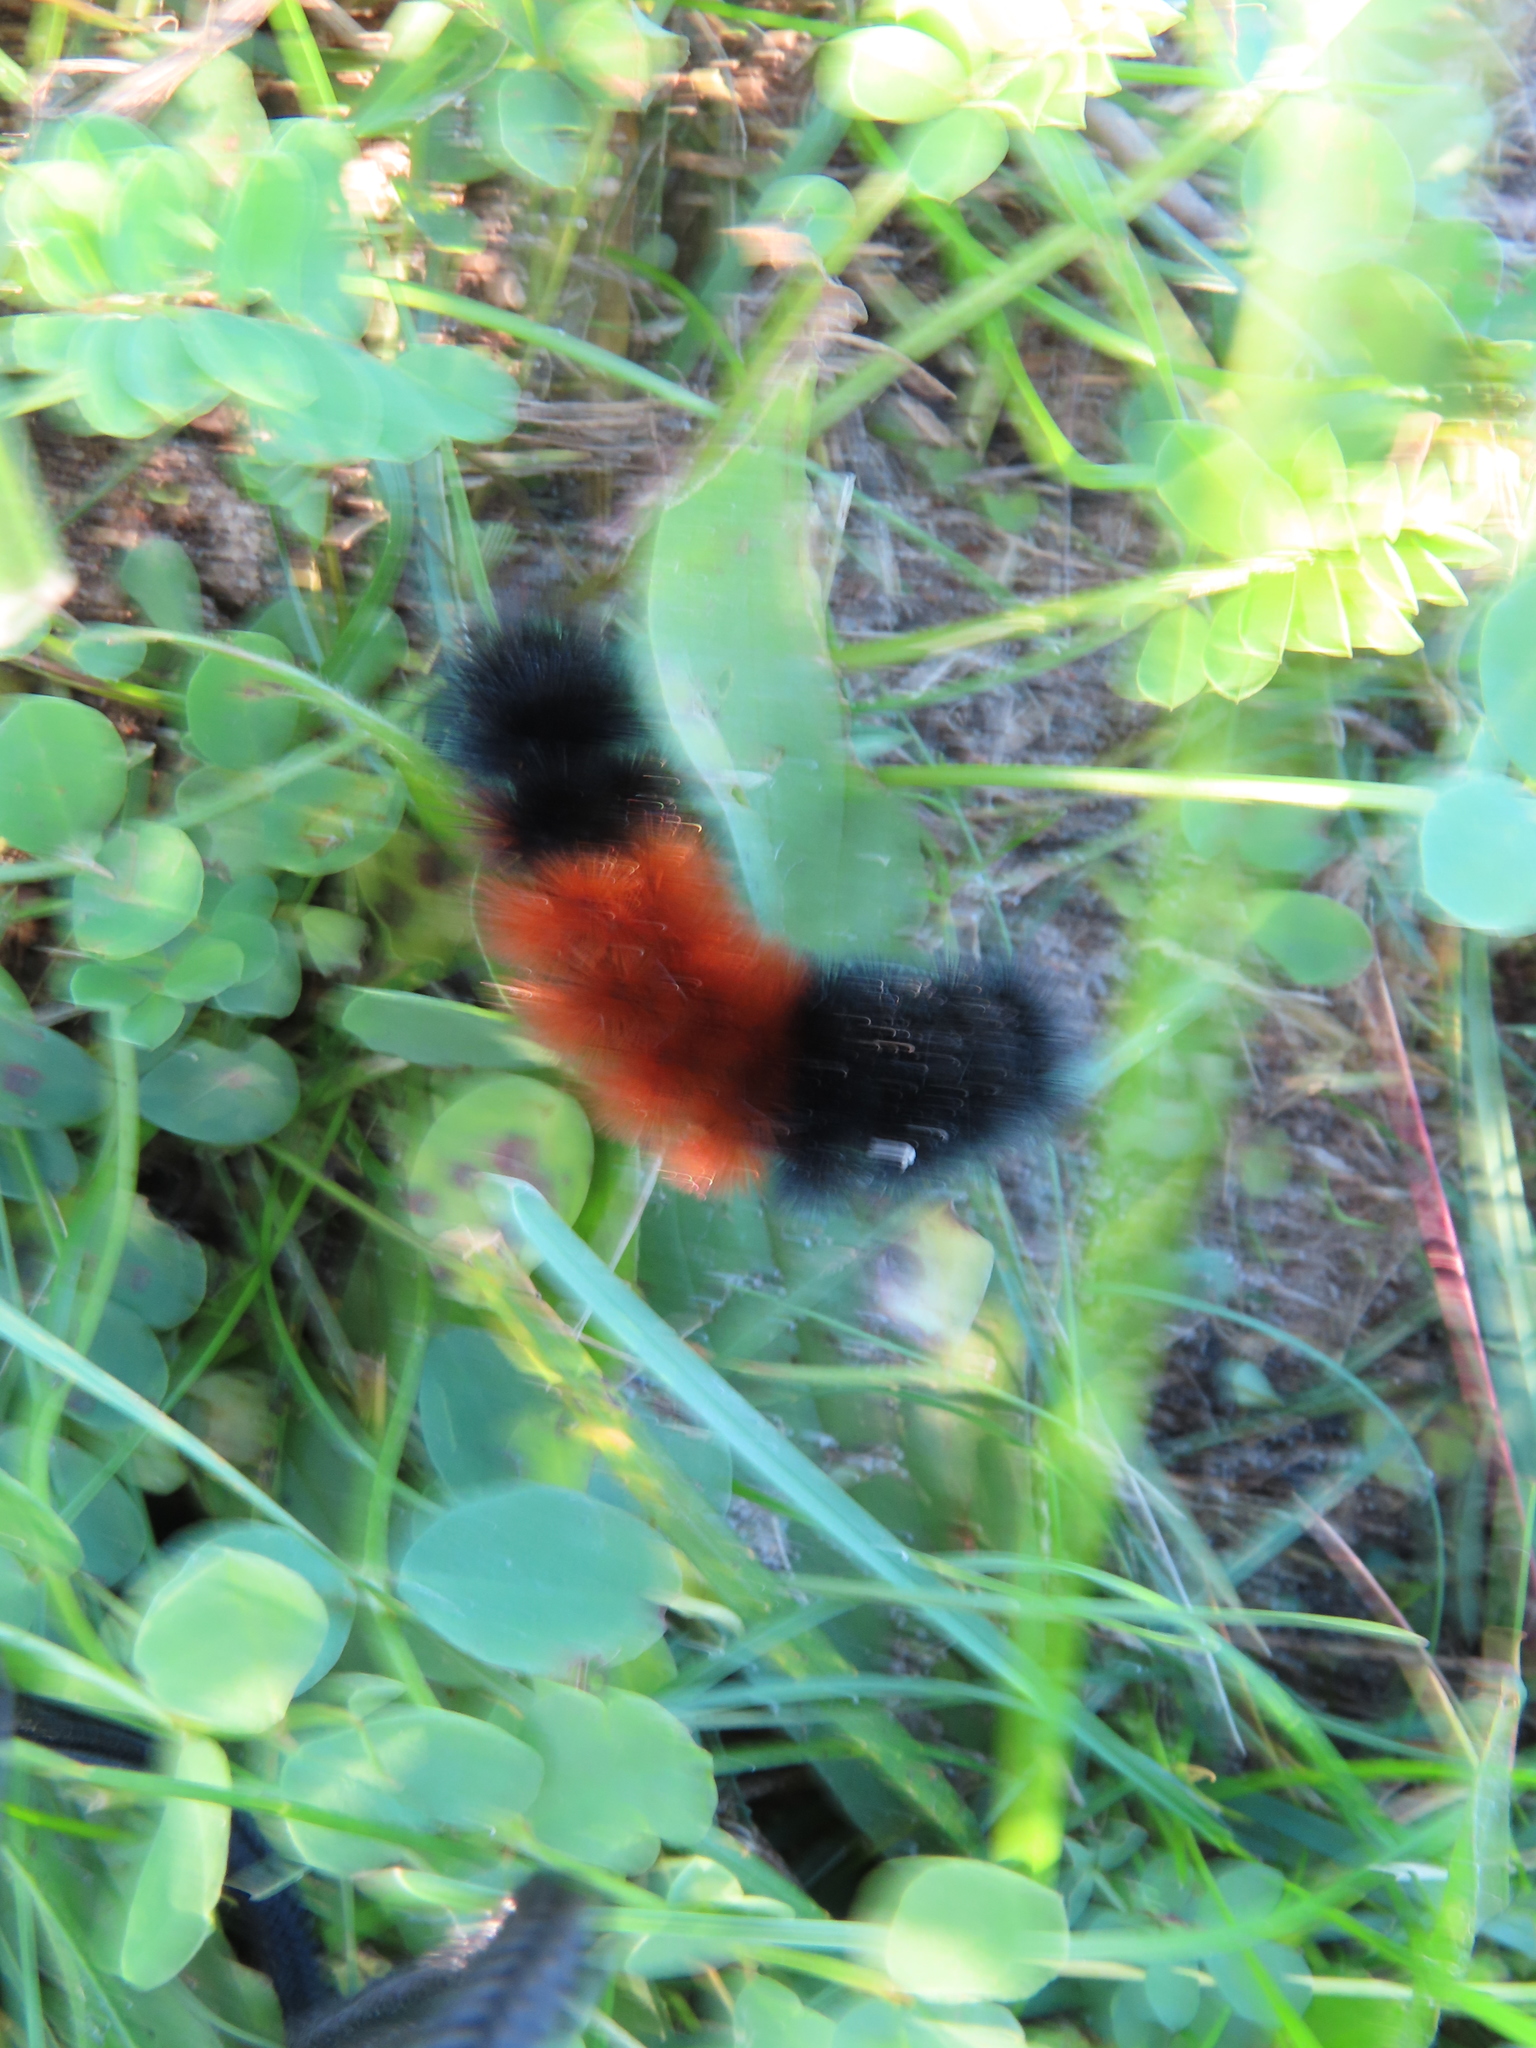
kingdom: Animalia
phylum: Arthropoda
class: Insecta
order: Lepidoptera
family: Erebidae
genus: Pyrrharctia
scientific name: Pyrrharctia isabella
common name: Isabella tiger moth
